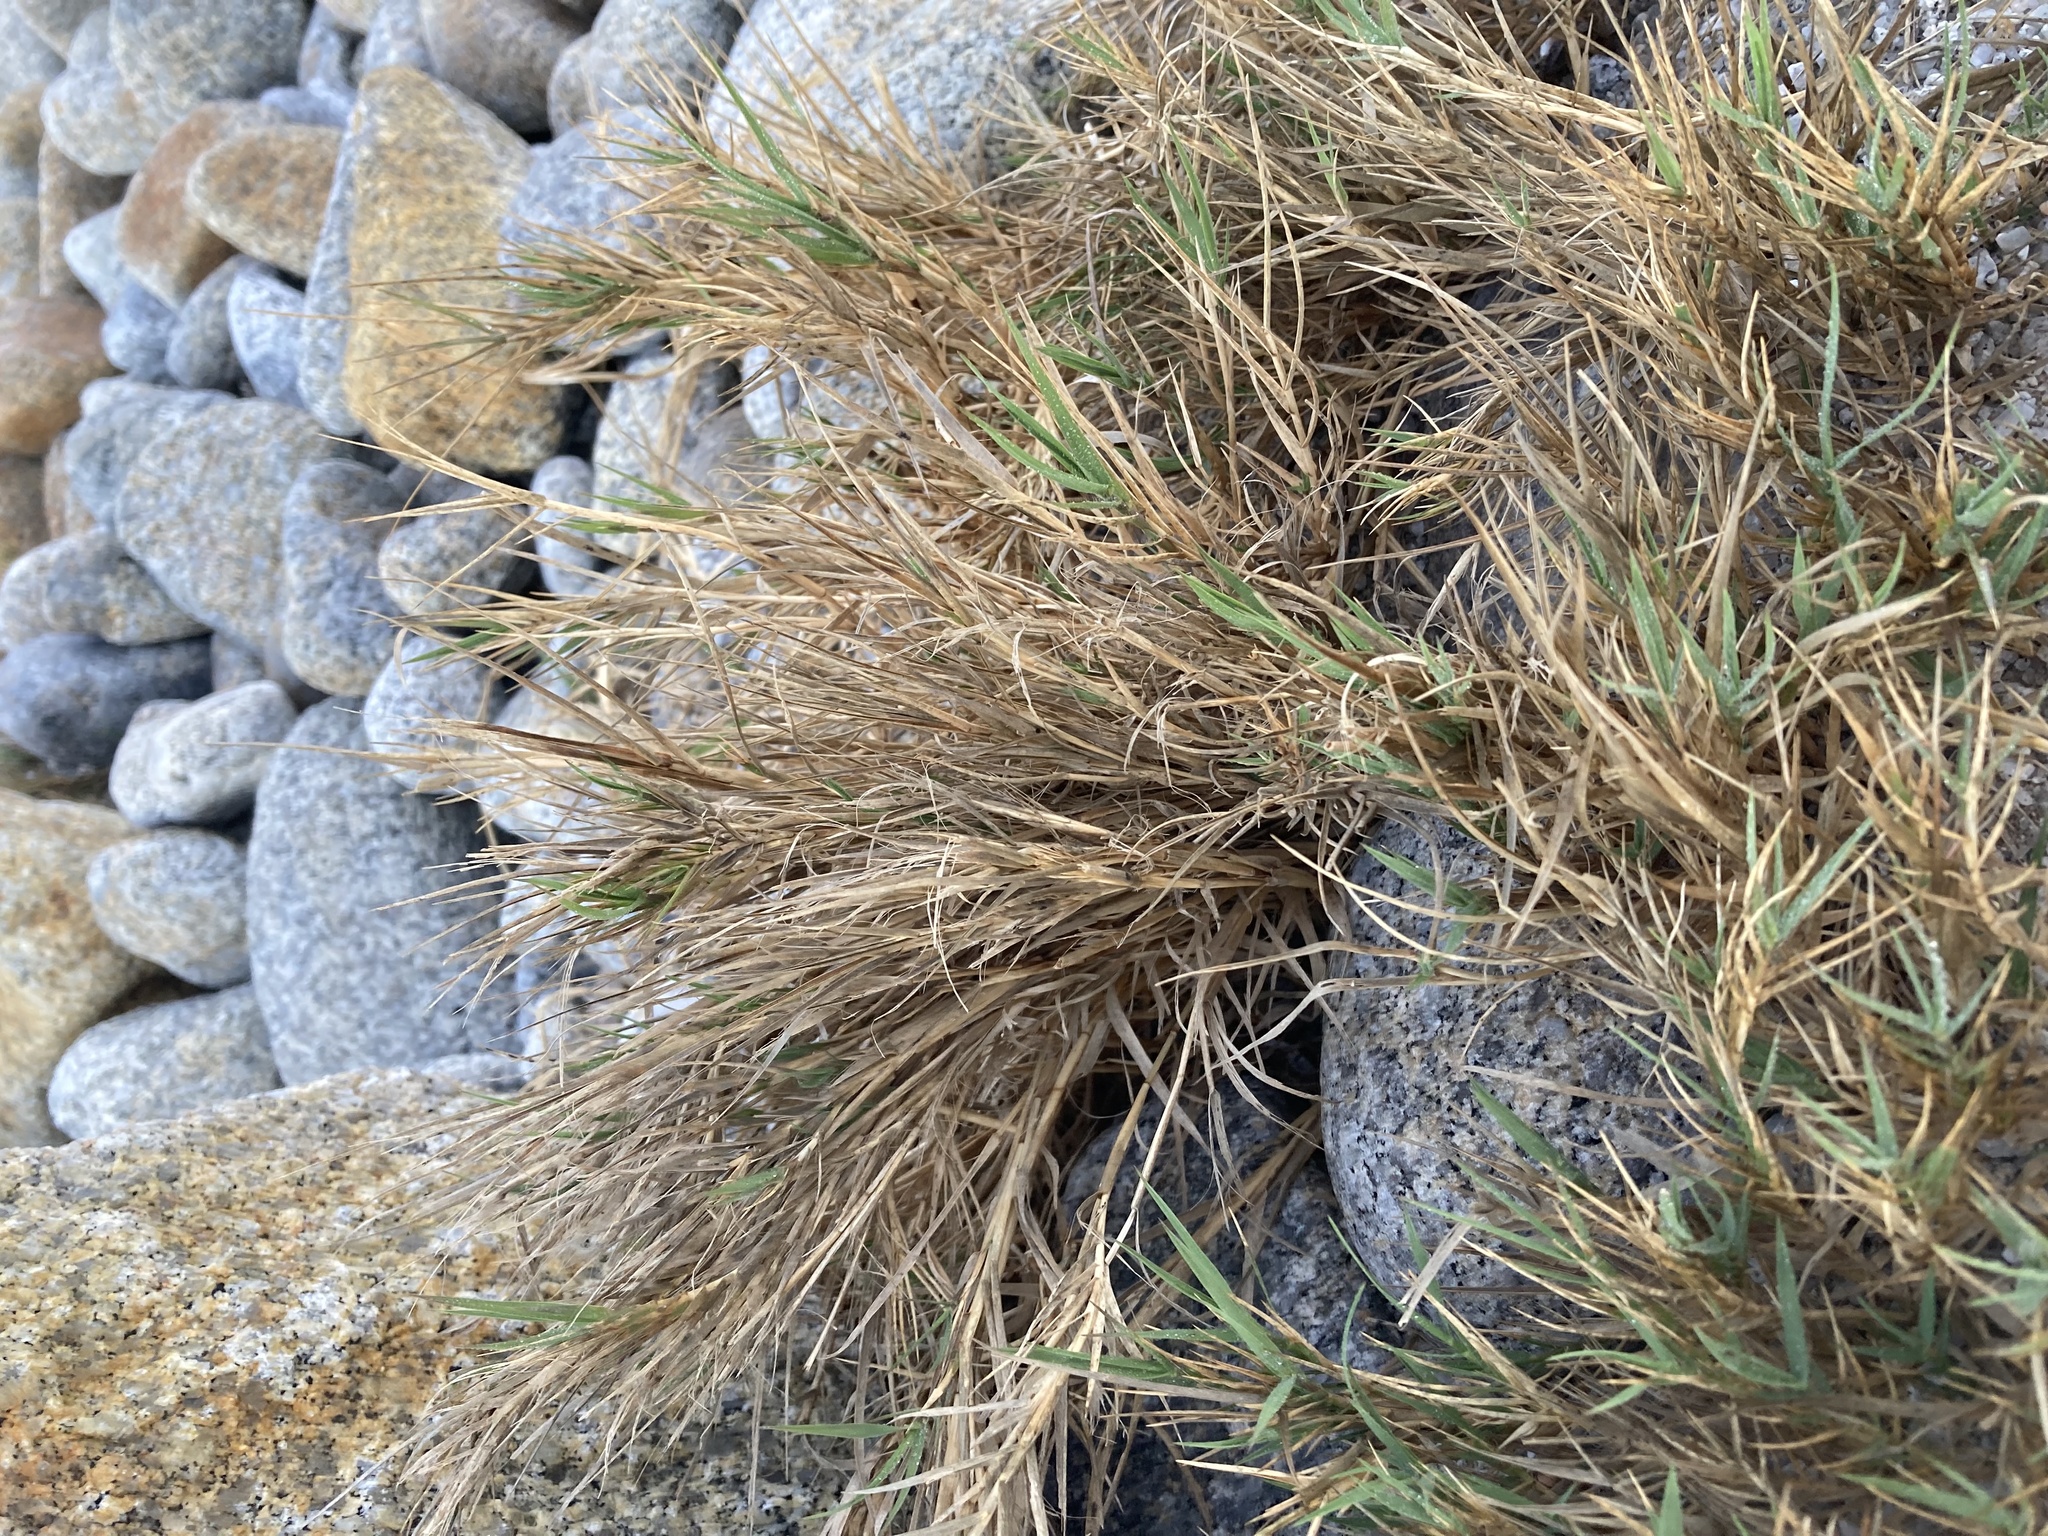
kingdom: Plantae
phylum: Tracheophyta
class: Liliopsida
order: Poales
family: Poaceae
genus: Distichlis
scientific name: Distichlis spicata
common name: Saltgrass
